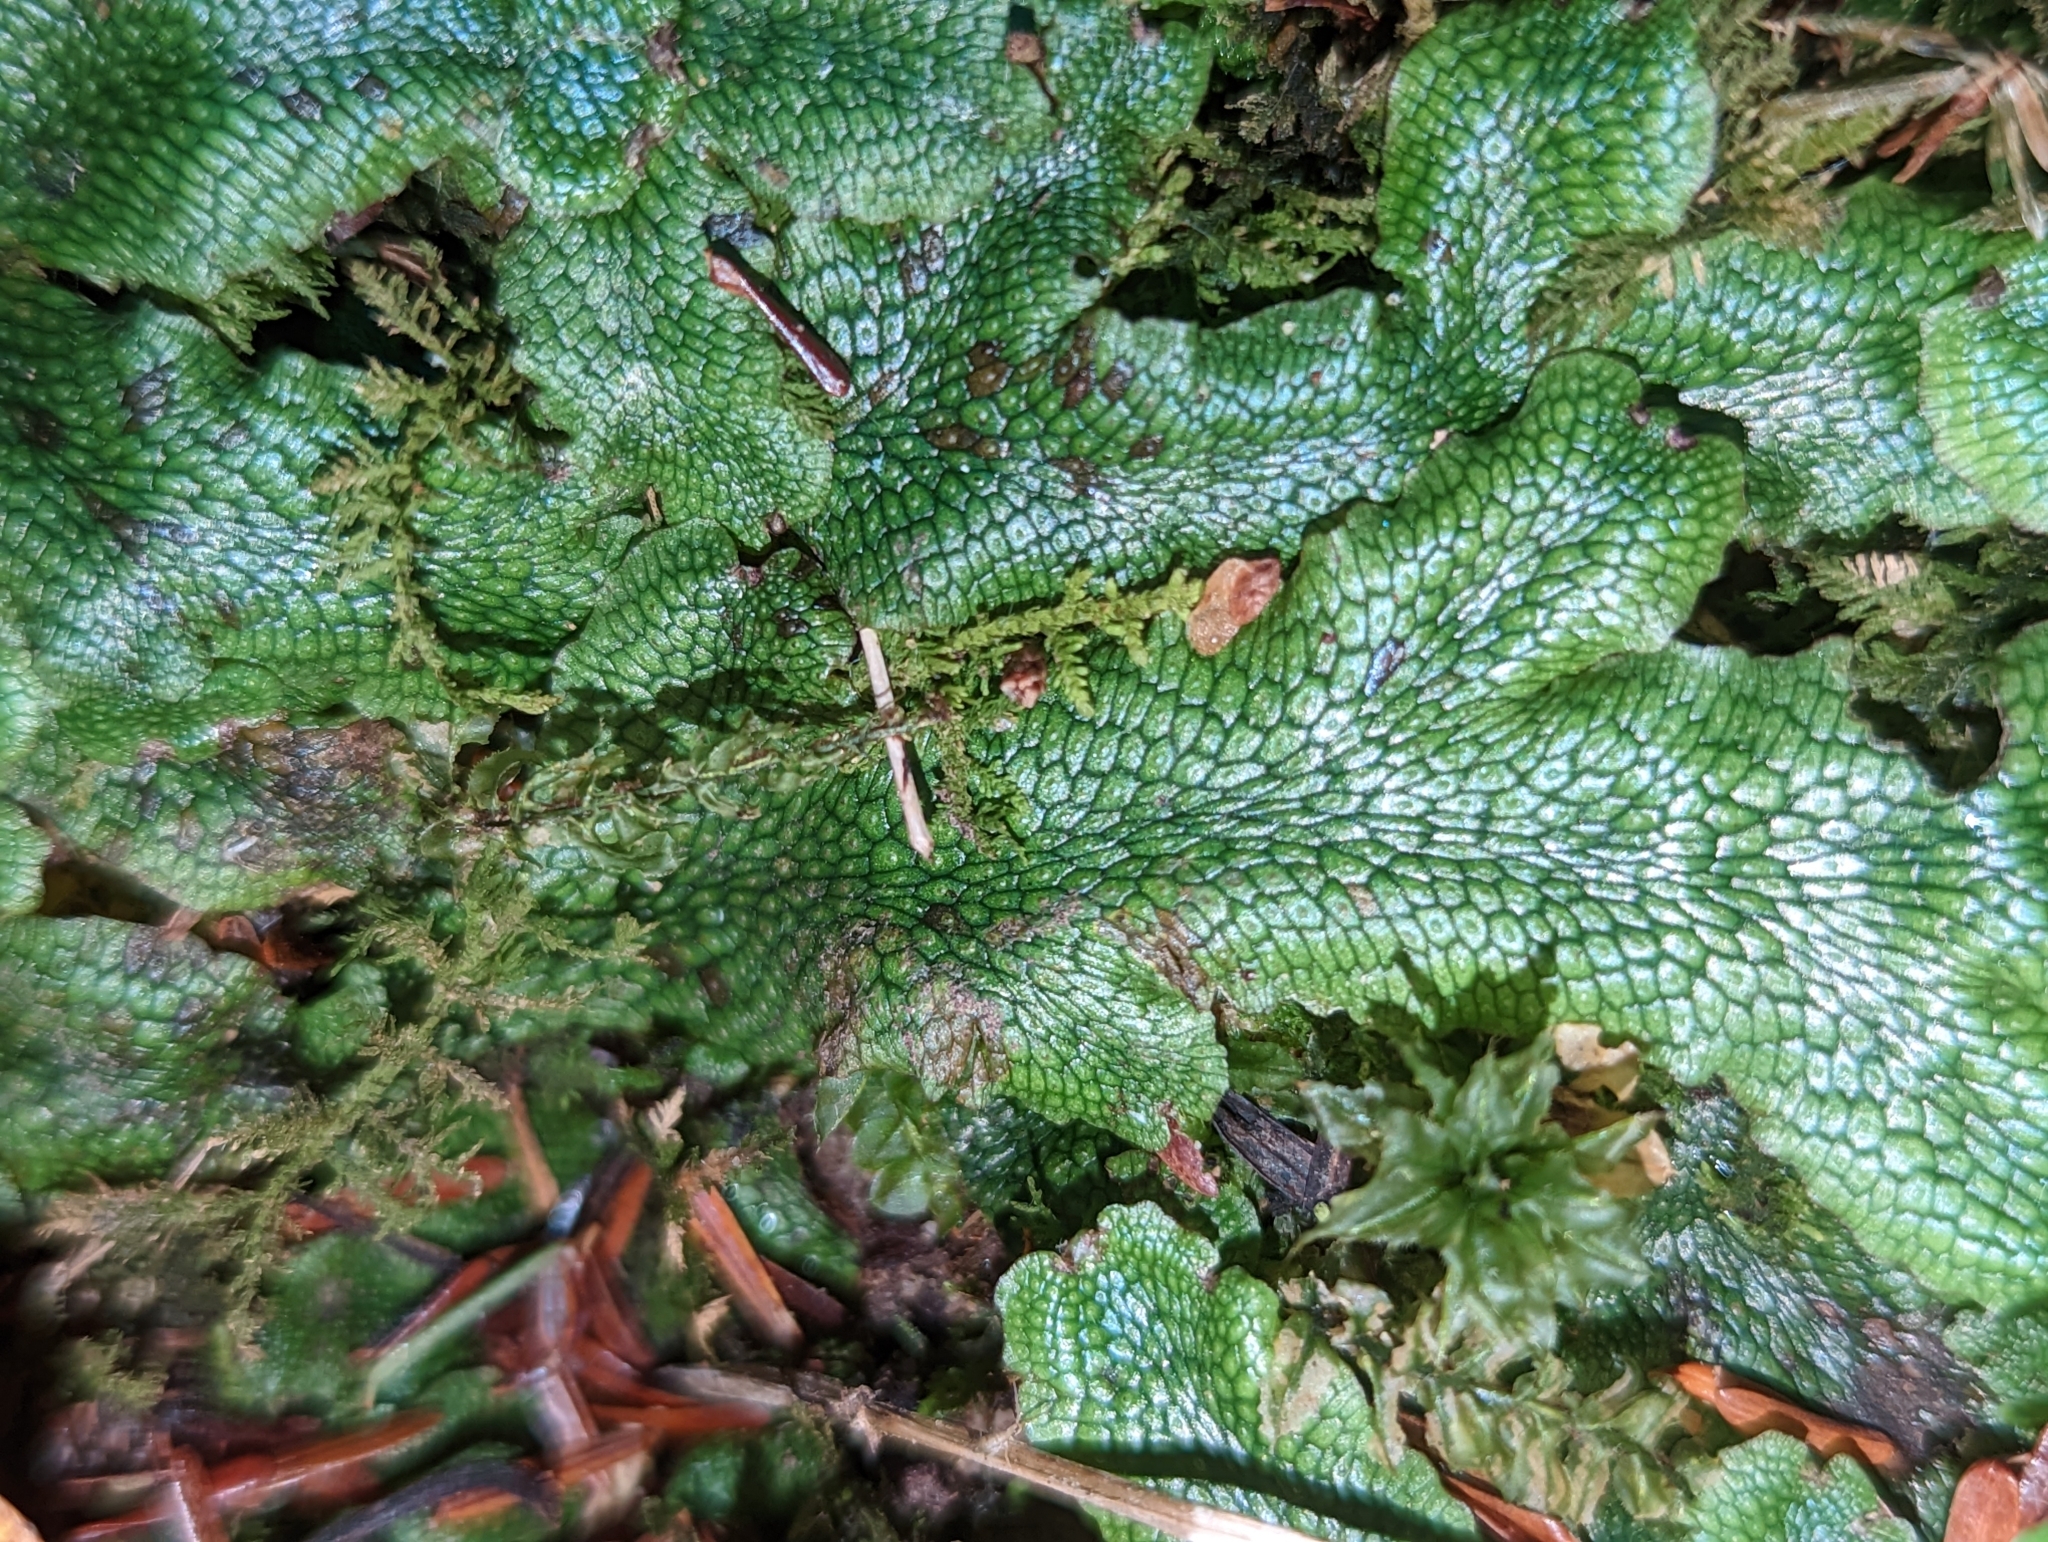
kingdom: Plantae
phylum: Marchantiophyta
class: Marchantiopsida
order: Marchantiales
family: Conocephalaceae
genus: Conocephalum
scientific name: Conocephalum salebrosum
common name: Cat-tongue liverwort
